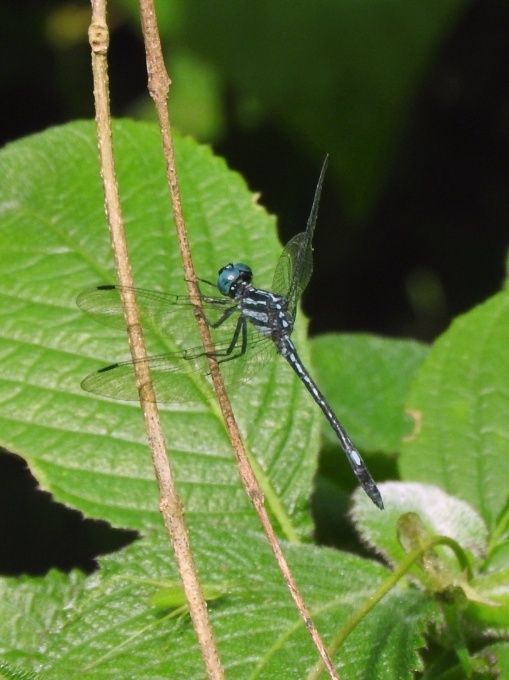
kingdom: Animalia
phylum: Arthropoda
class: Insecta
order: Odonata
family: Libellulidae
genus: Hylaeothemis
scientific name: Hylaeothemis apicalis
